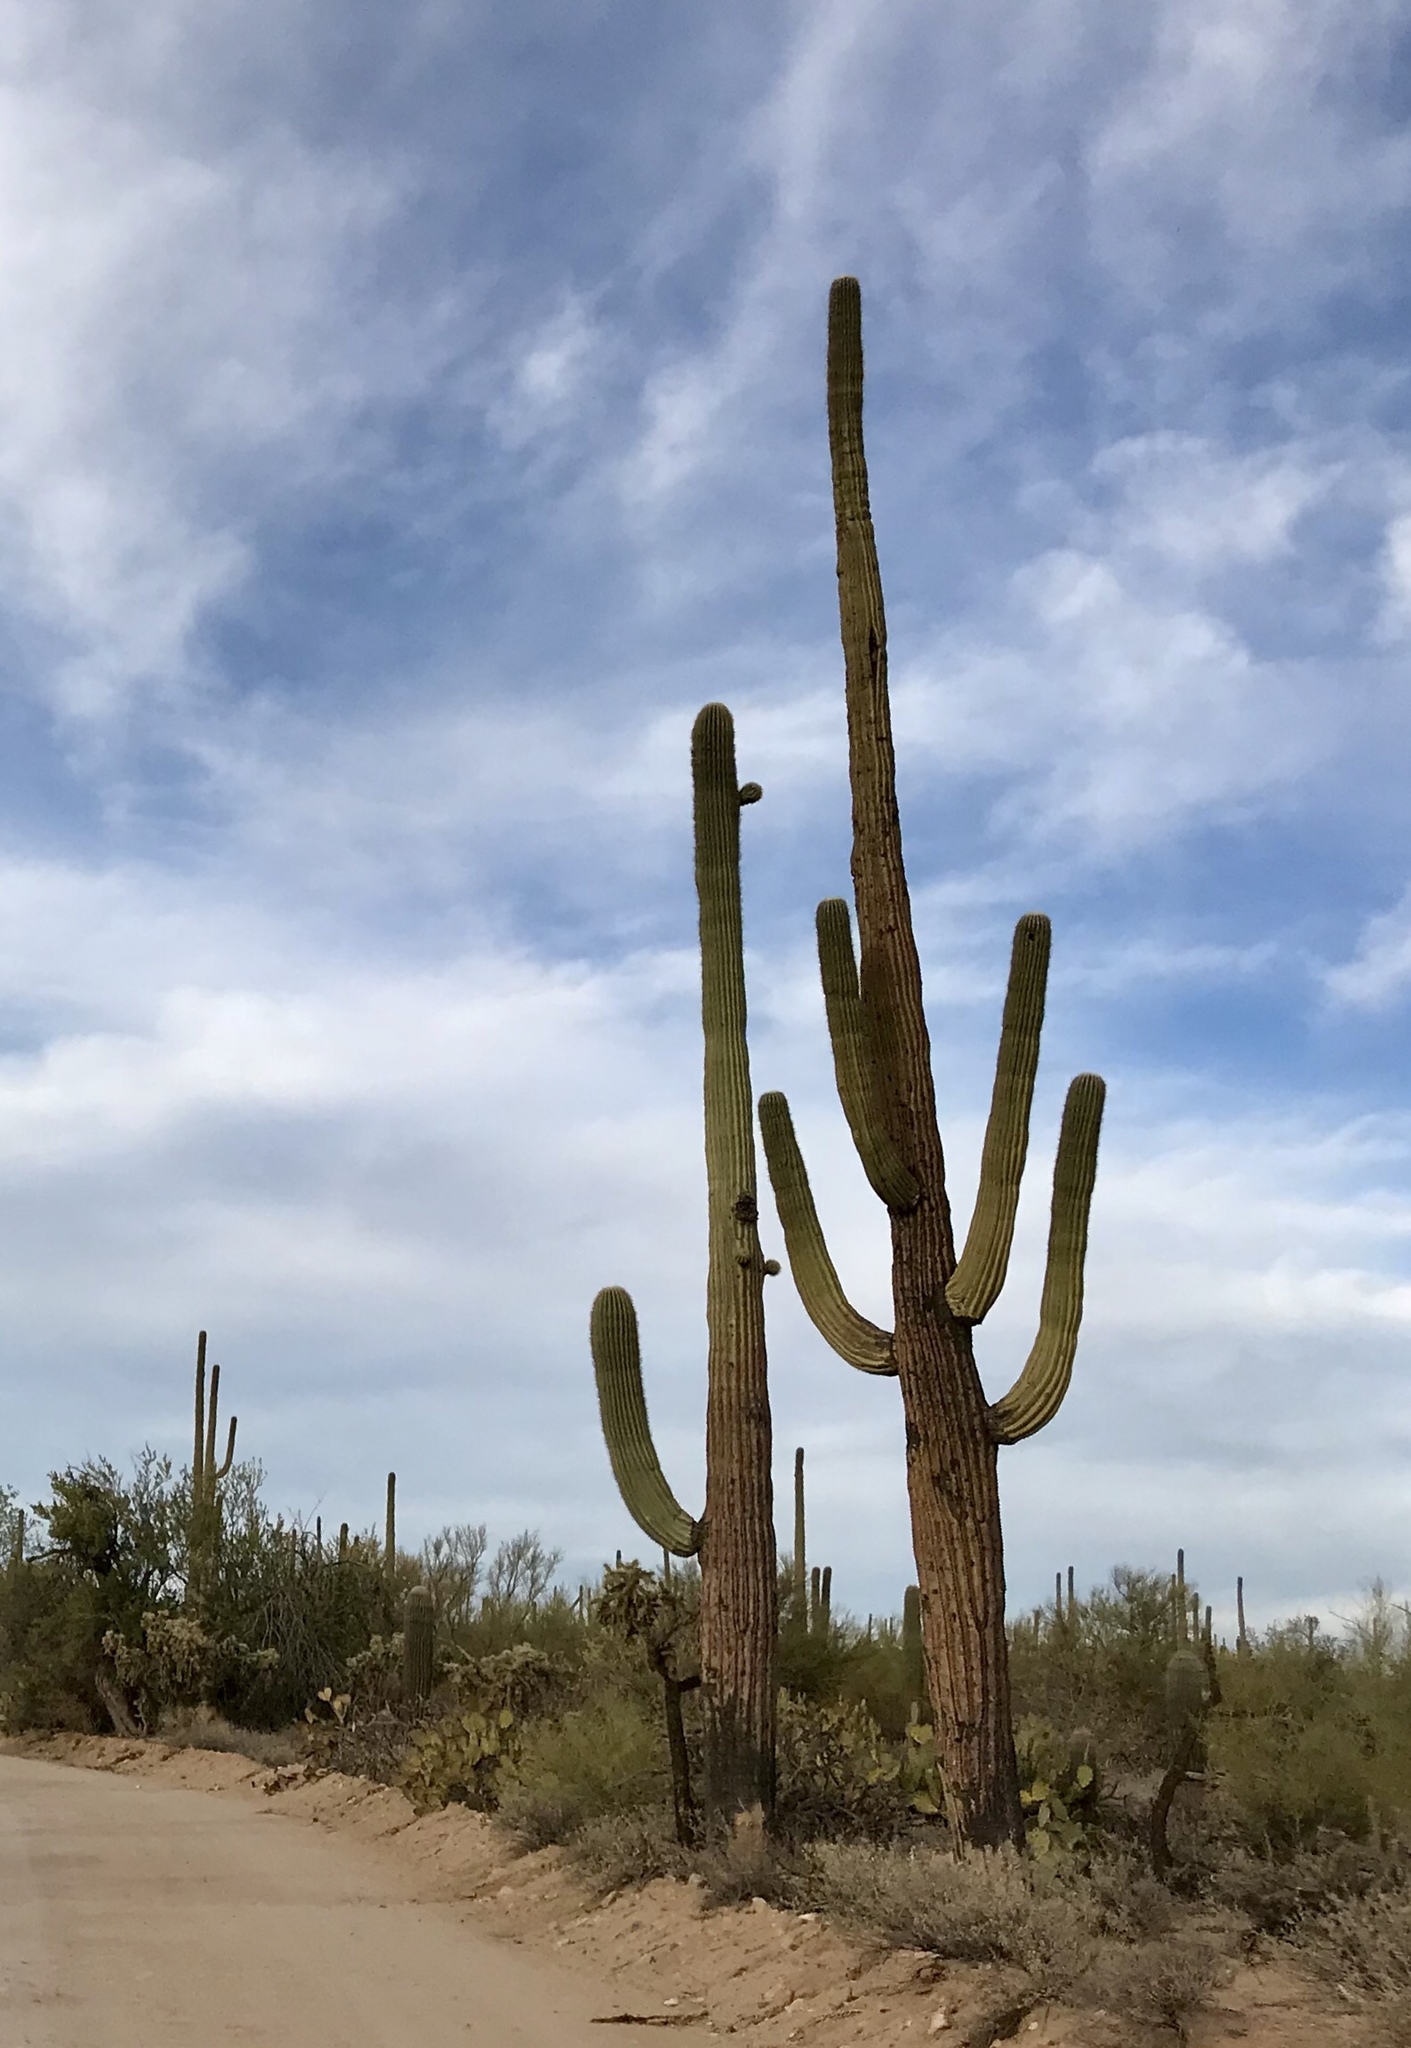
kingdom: Plantae
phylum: Tracheophyta
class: Magnoliopsida
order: Caryophyllales
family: Cactaceae
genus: Carnegiea
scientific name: Carnegiea gigantea
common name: Saguaro
